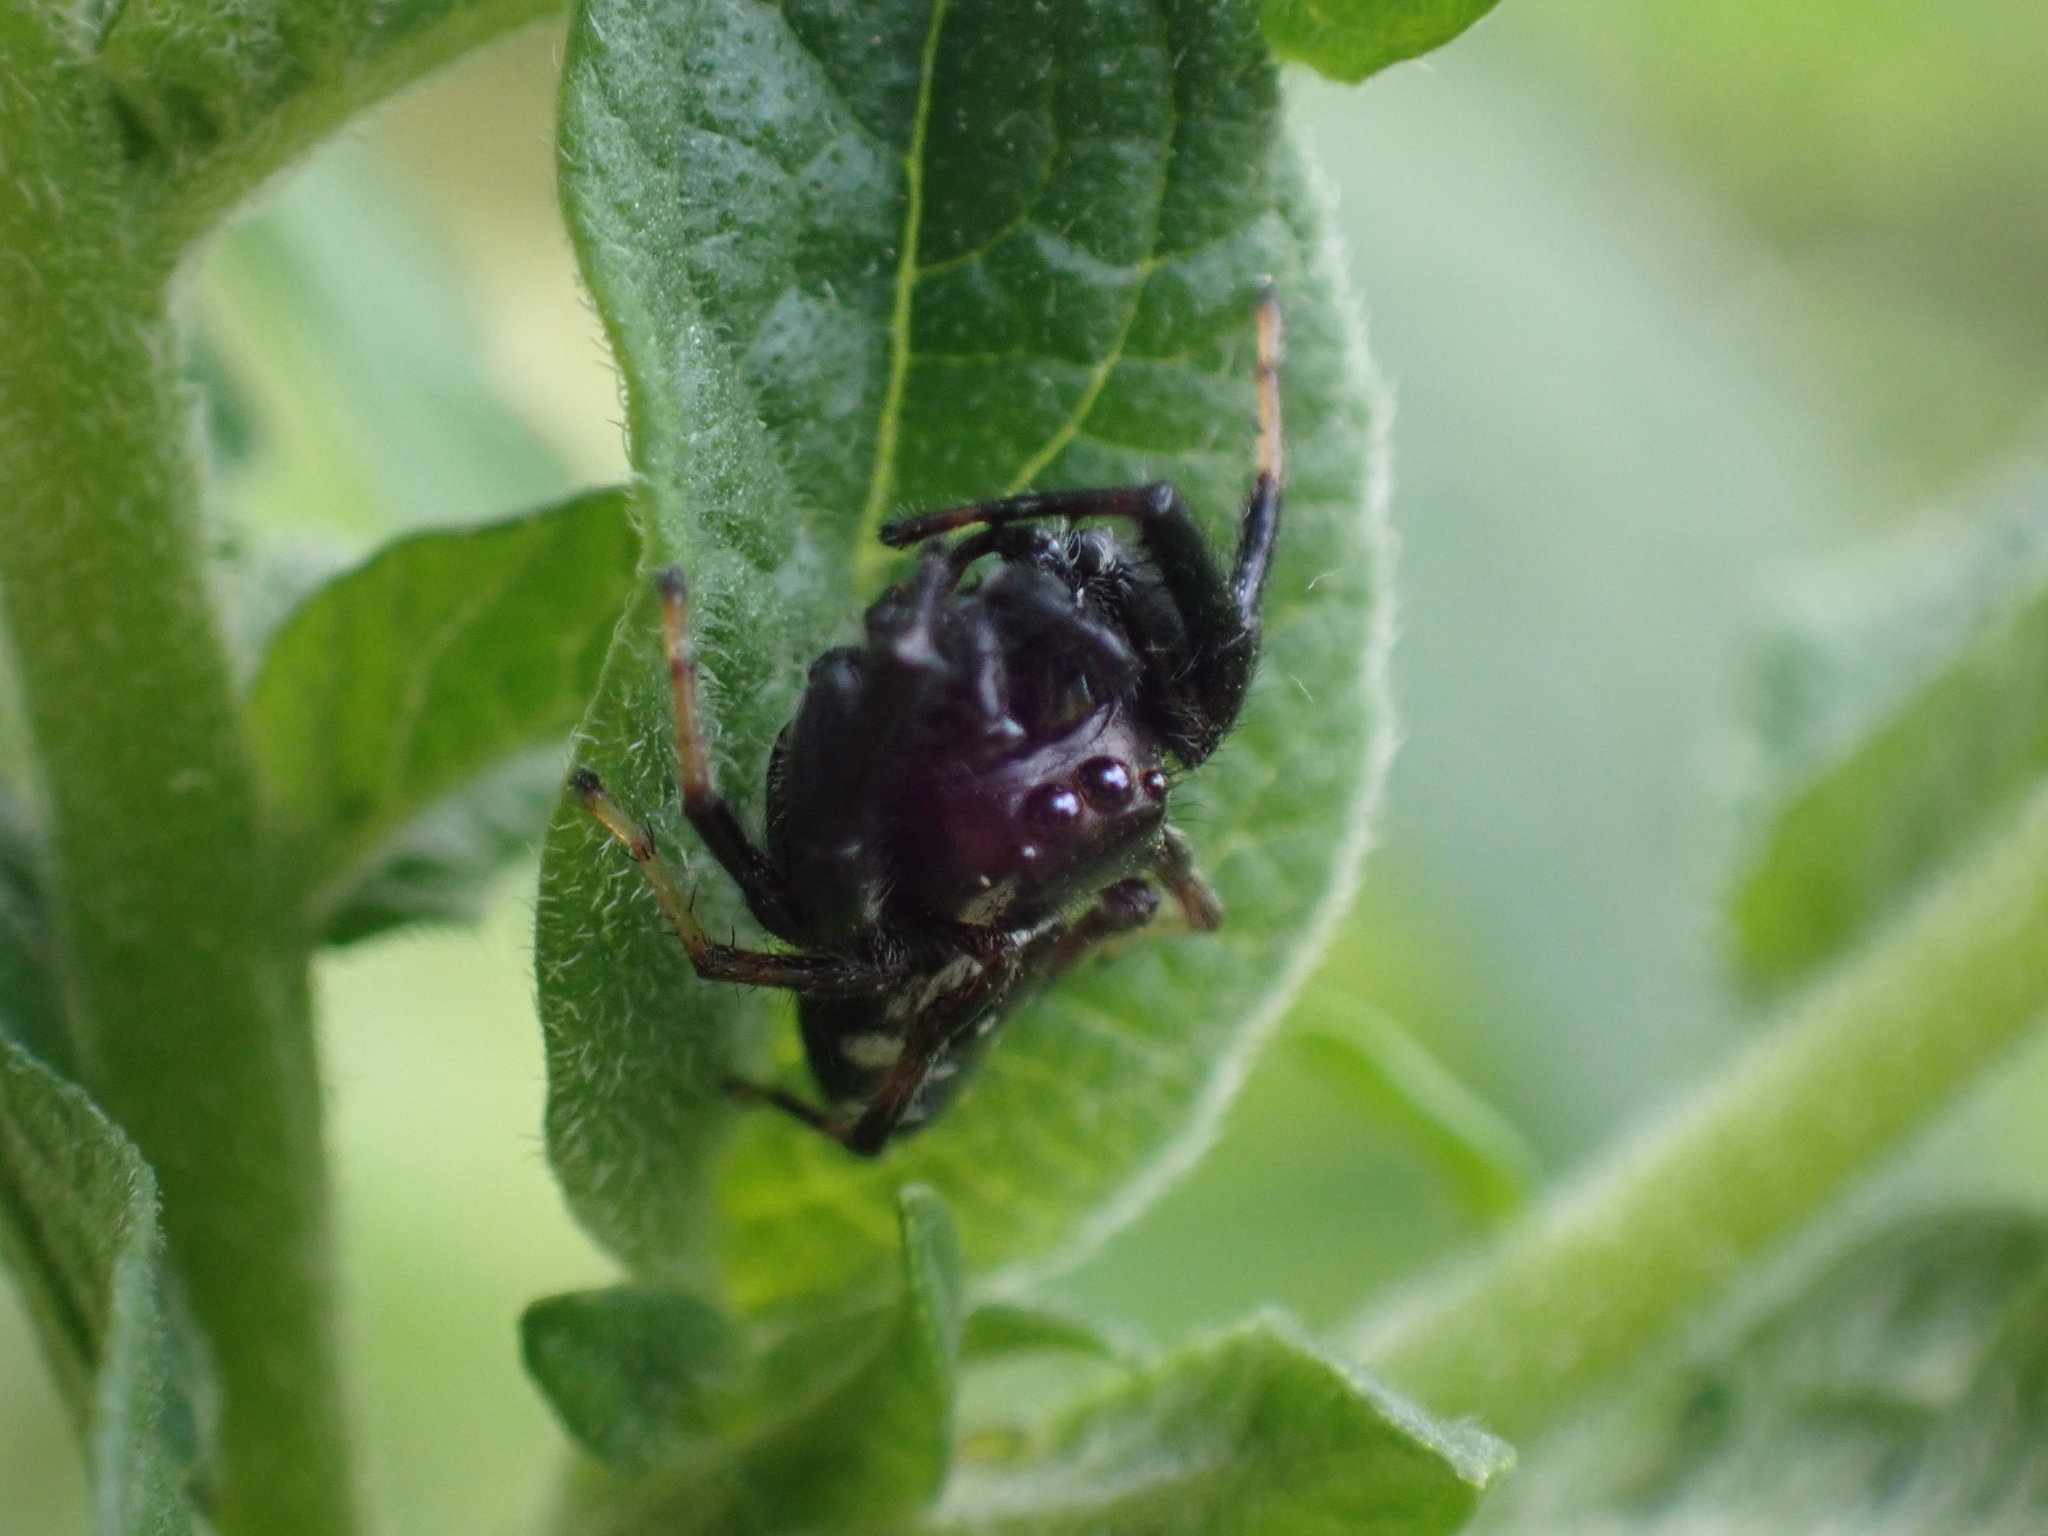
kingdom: Animalia
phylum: Arthropoda
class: Arachnida
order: Araneae
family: Salticidae
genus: Paraphidippus
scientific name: Paraphidippus aurantius
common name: Jumping spiders
